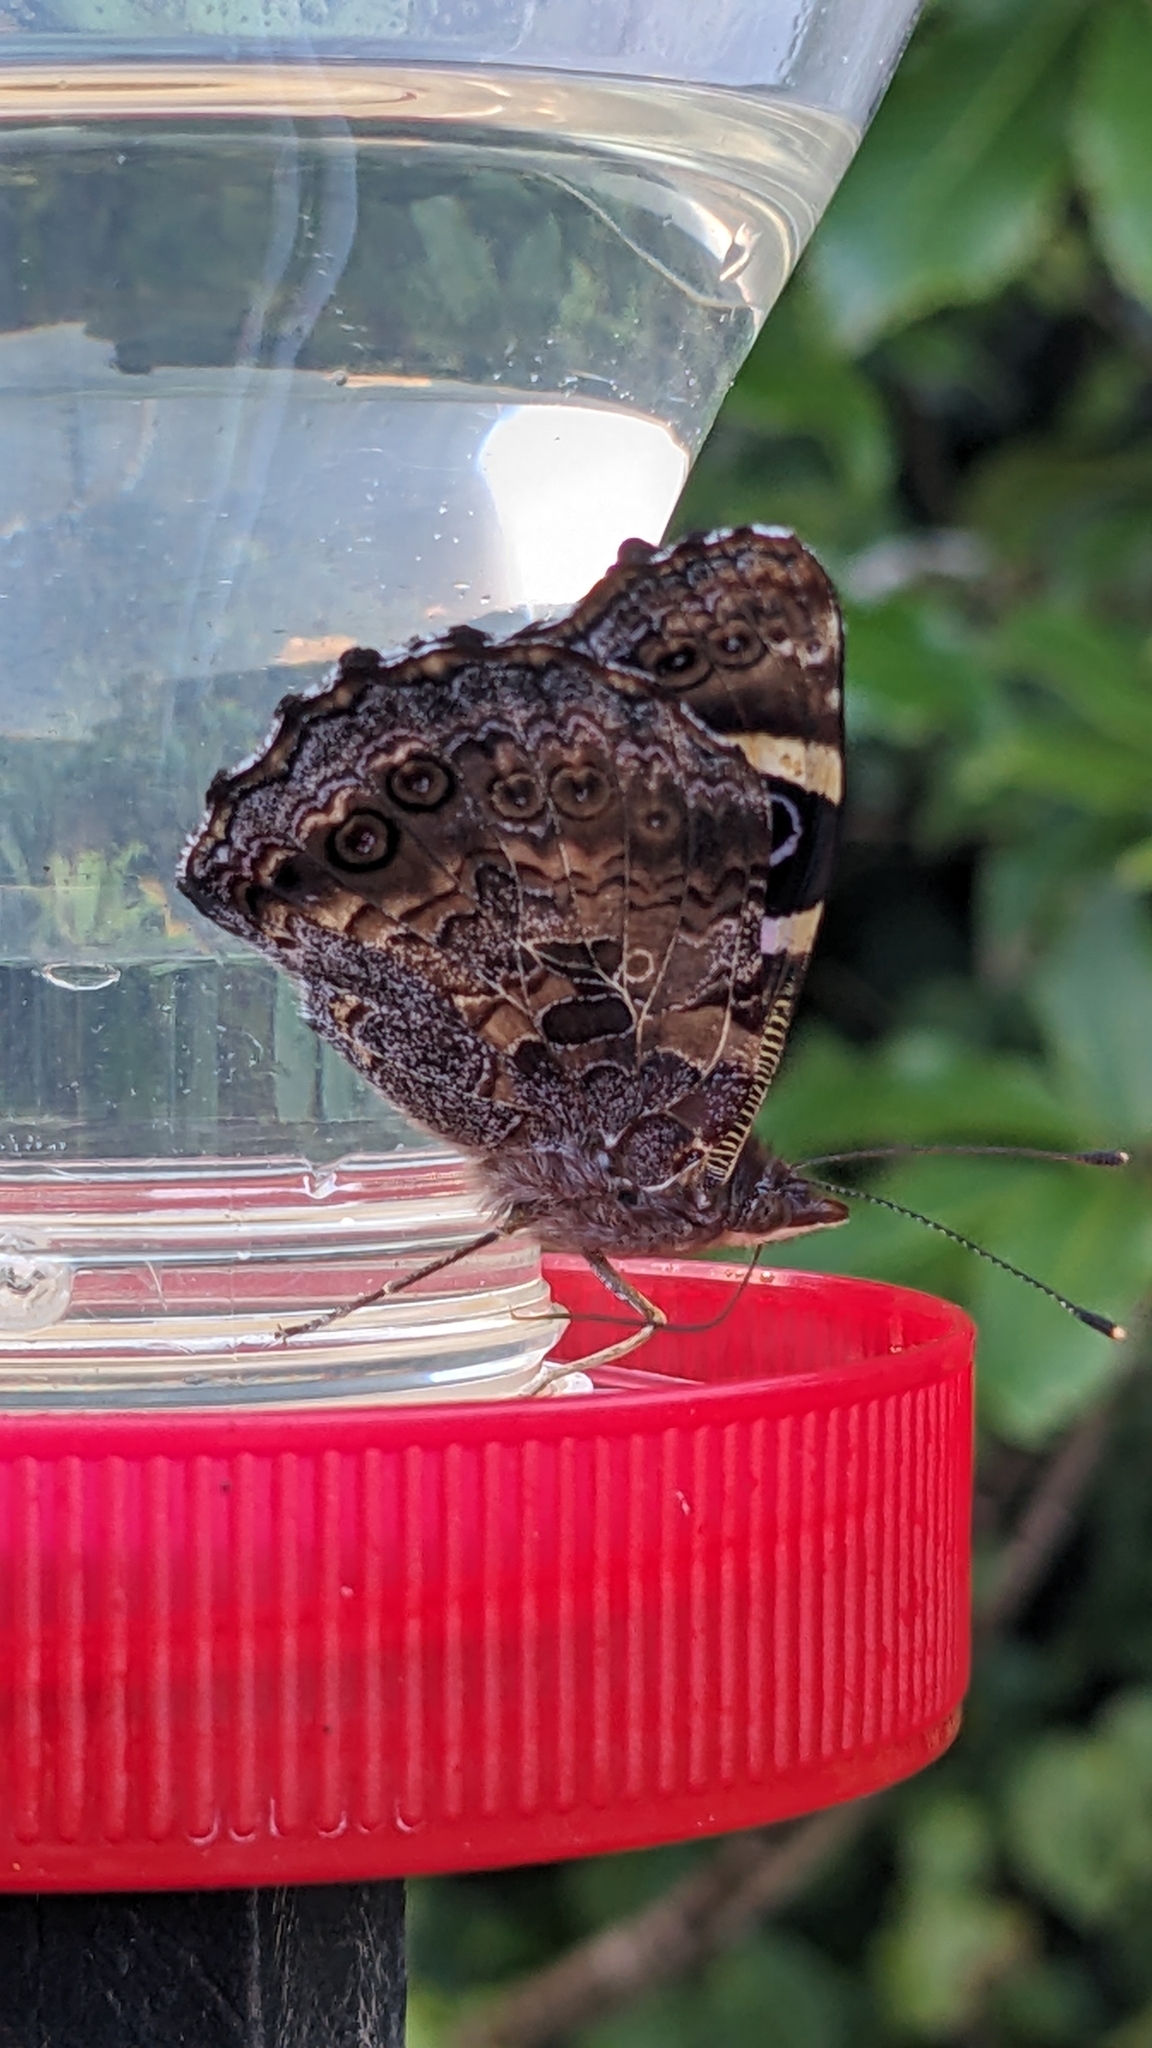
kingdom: Animalia
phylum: Arthropoda
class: Insecta
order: Lepidoptera
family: Nymphalidae
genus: Vanessa
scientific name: Vanessa gonerilla
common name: New zealand red admiral
